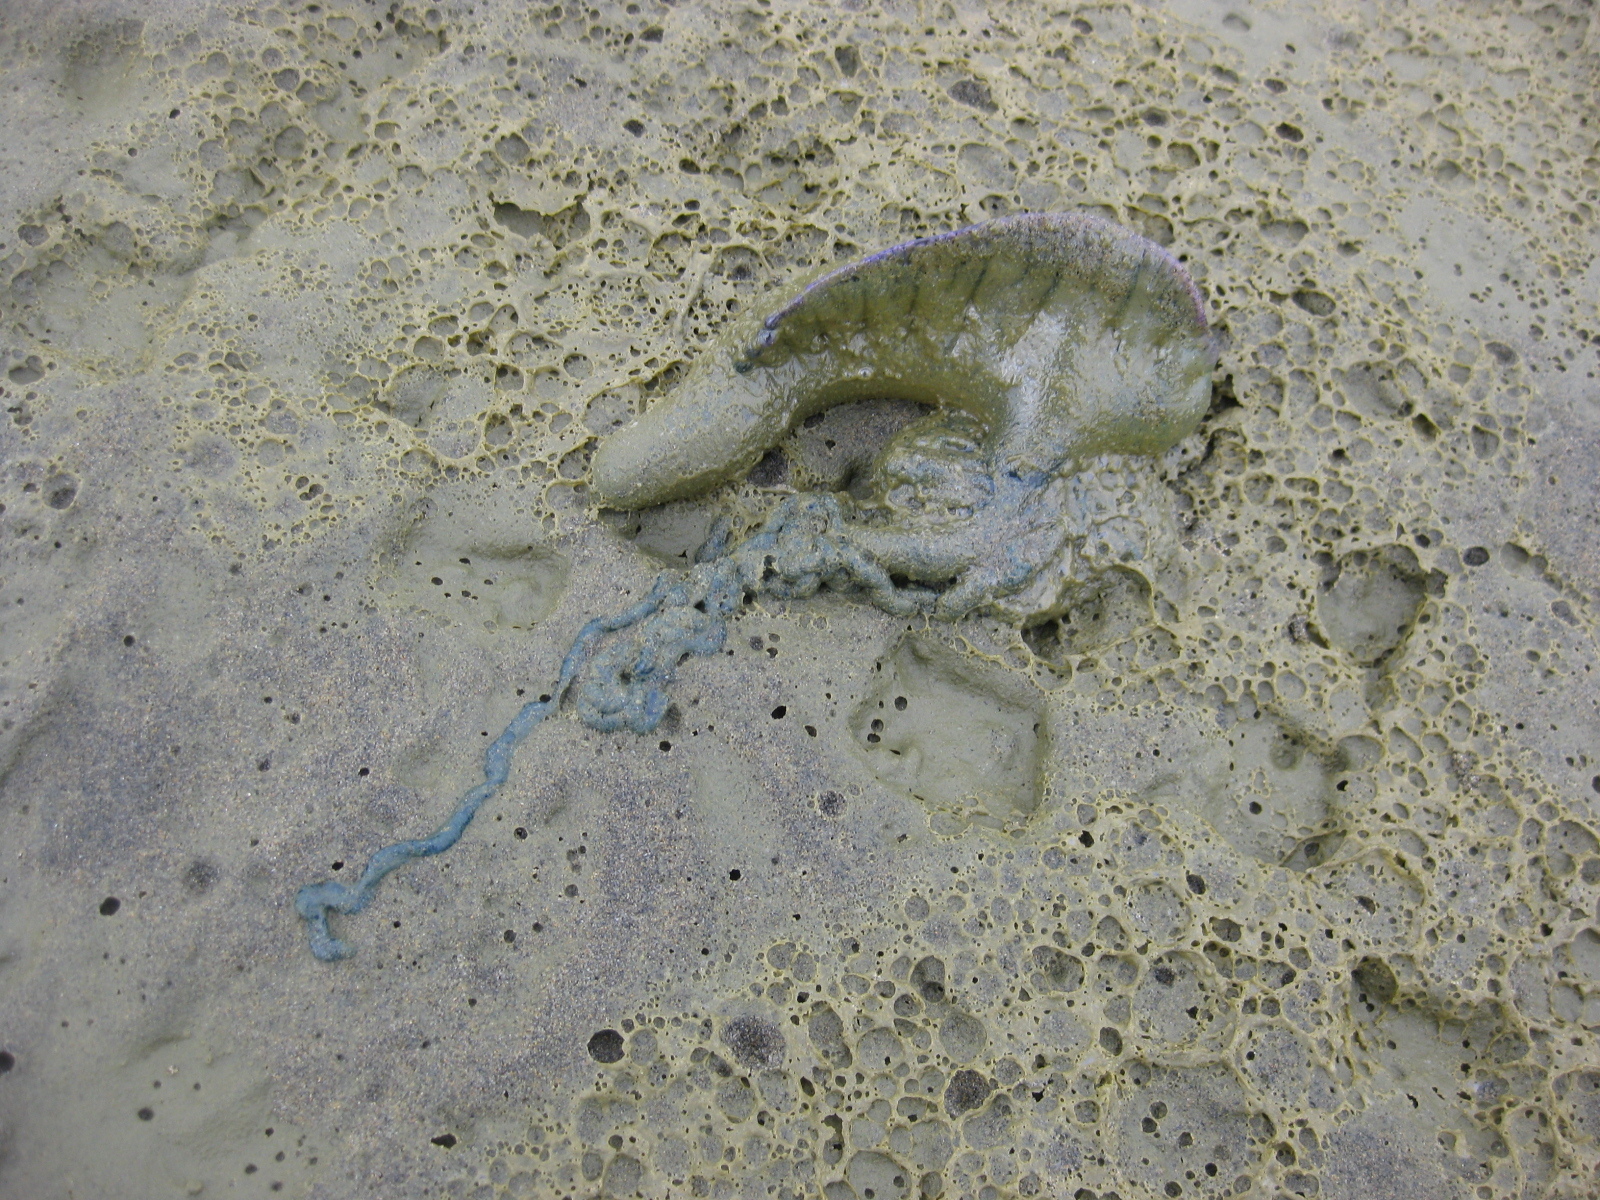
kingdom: Animalia
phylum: Cnidaria
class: Hydrozoa
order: Siphonophorae
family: Physaliidae
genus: Physalia
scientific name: Physalia physalis
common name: Portuguese man-of-war
